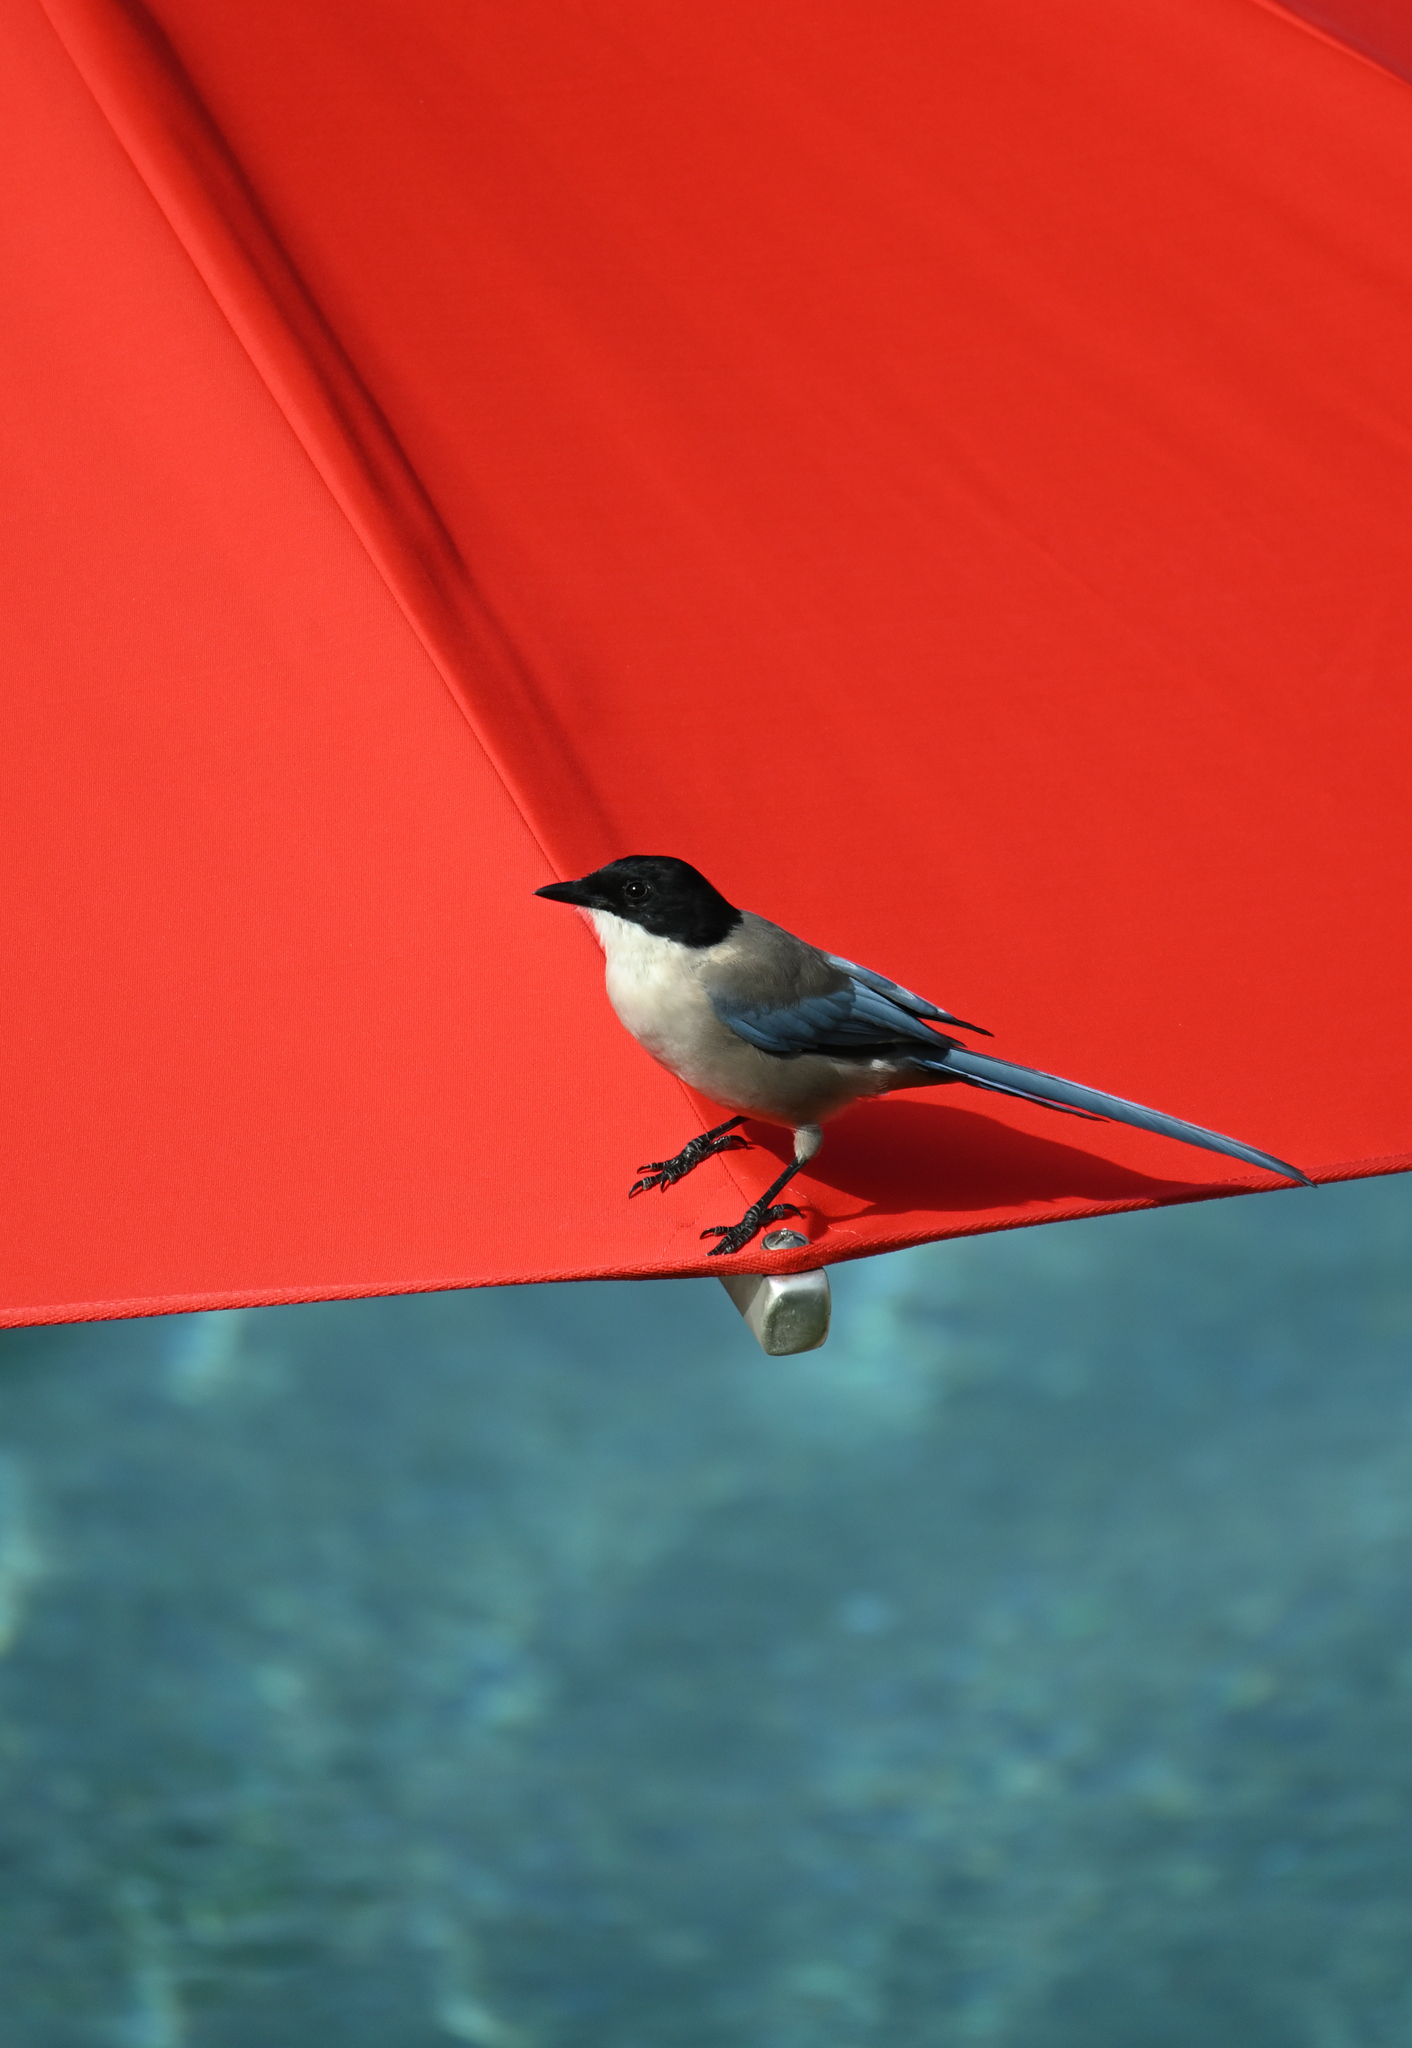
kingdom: Animalia
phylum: Chordata
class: Aves
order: Passeriformes
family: Corvidae
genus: Cyanopica
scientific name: Cyanopica cooki
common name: Iberian magpie
